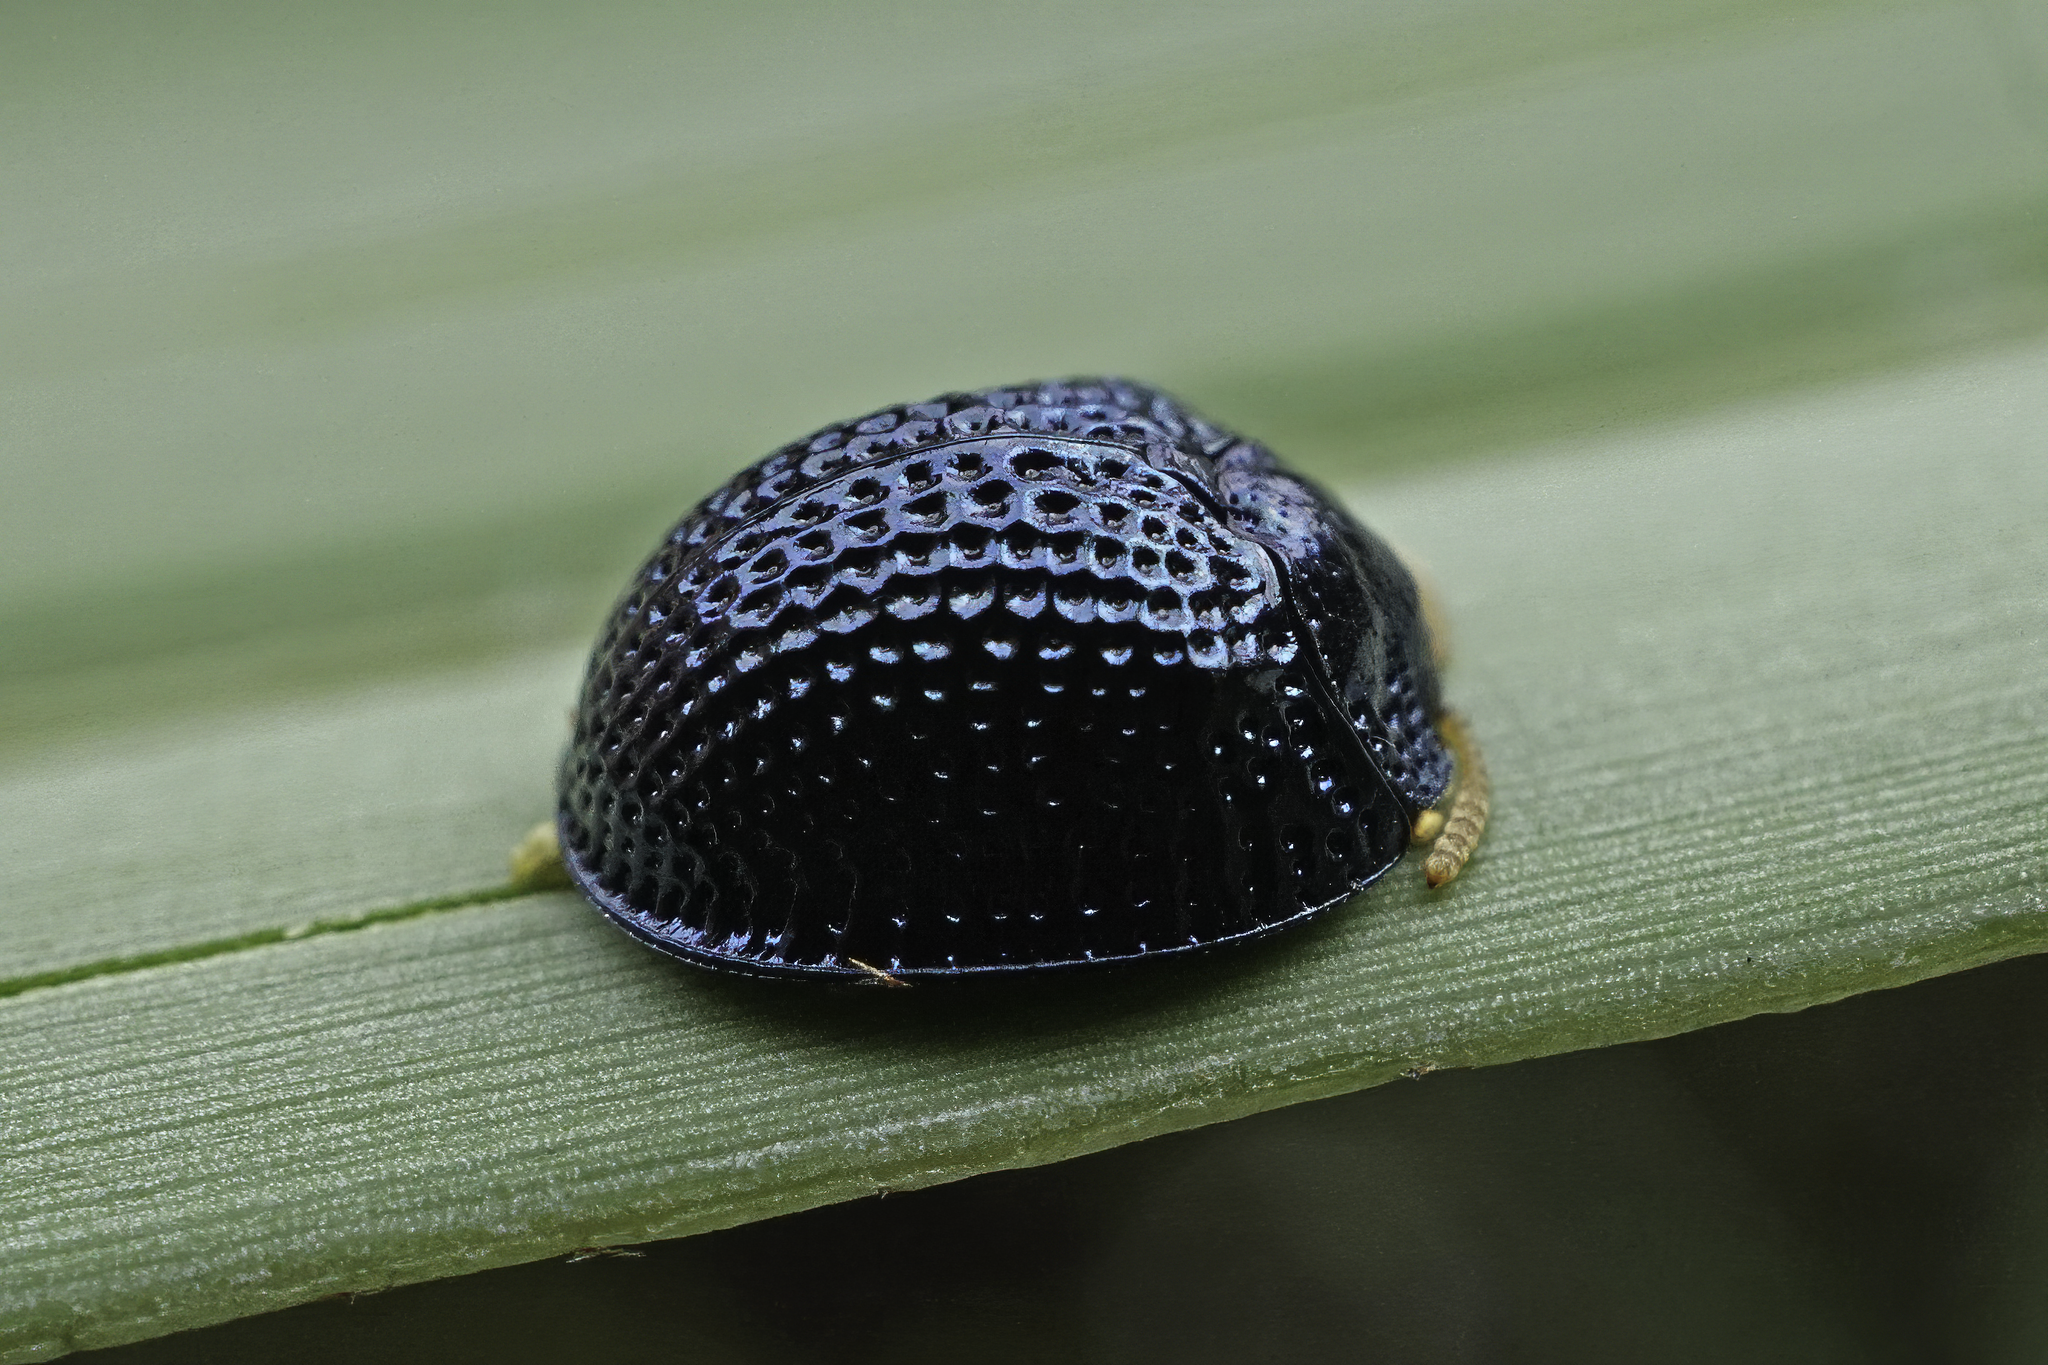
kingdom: Animalia
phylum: Arthropoda
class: Insecta
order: Coleoptera
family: Chrysomelidae
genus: Hemisphaerota
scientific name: Hemisphaerota cyanea
